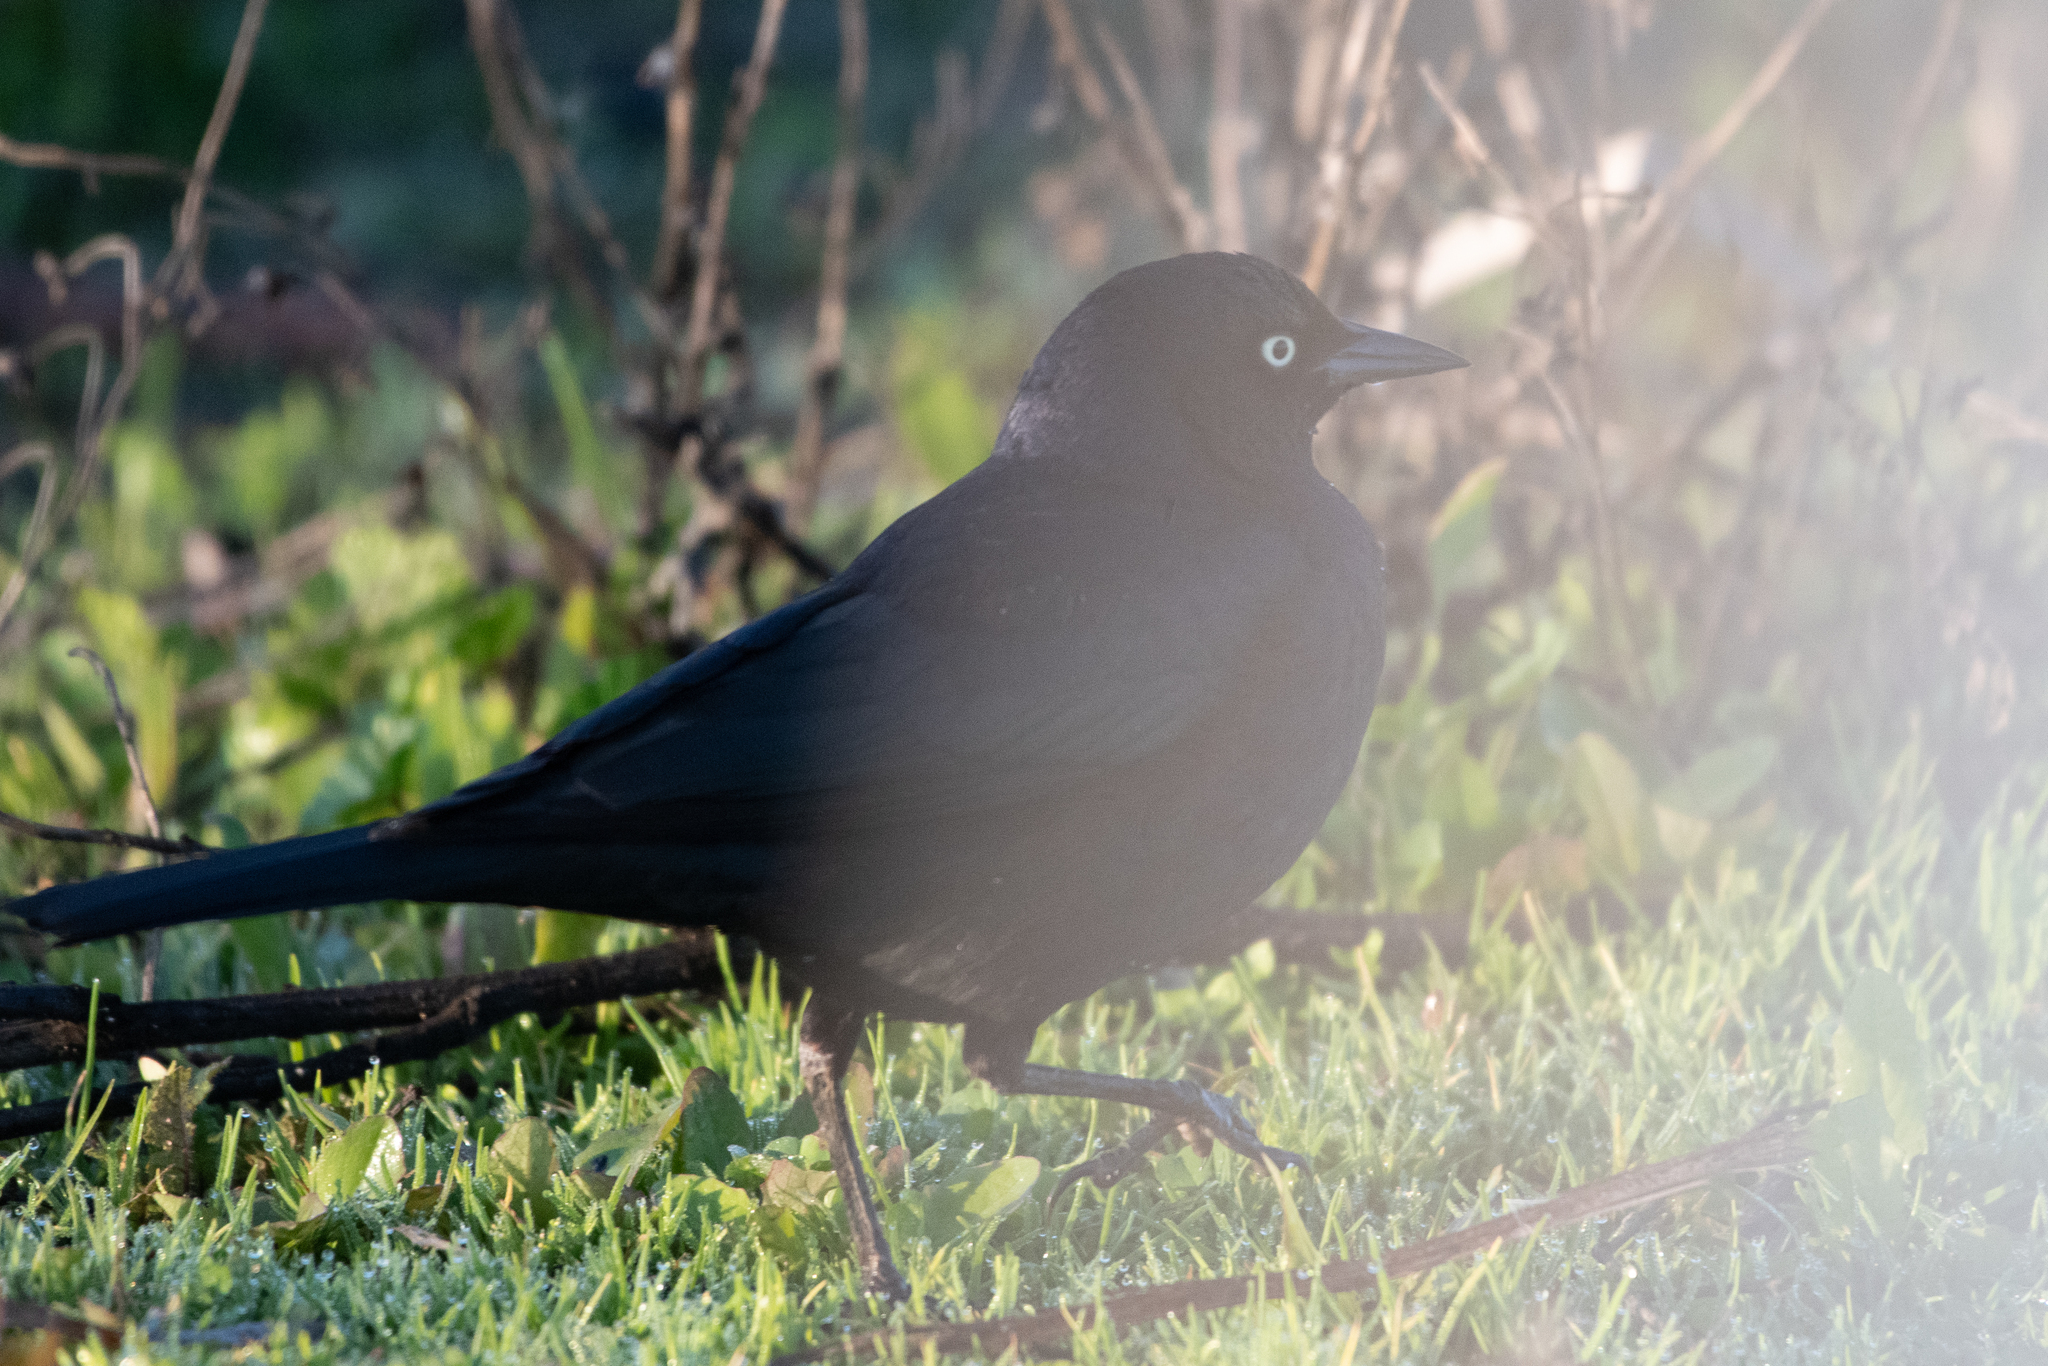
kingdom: Animalia
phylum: Chordata
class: Aves
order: Passeriformes
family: Icteridae
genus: Euphagus
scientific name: Euphagus cyanocephalus
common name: Brewer's blackbird
